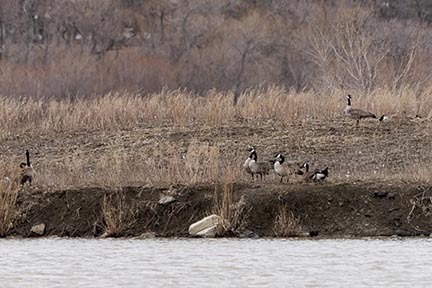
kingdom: Animalia
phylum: Chordata
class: Aves
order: Anseriformes
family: Anatidae
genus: Branta
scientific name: Branta canadensis
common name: Canada goose
